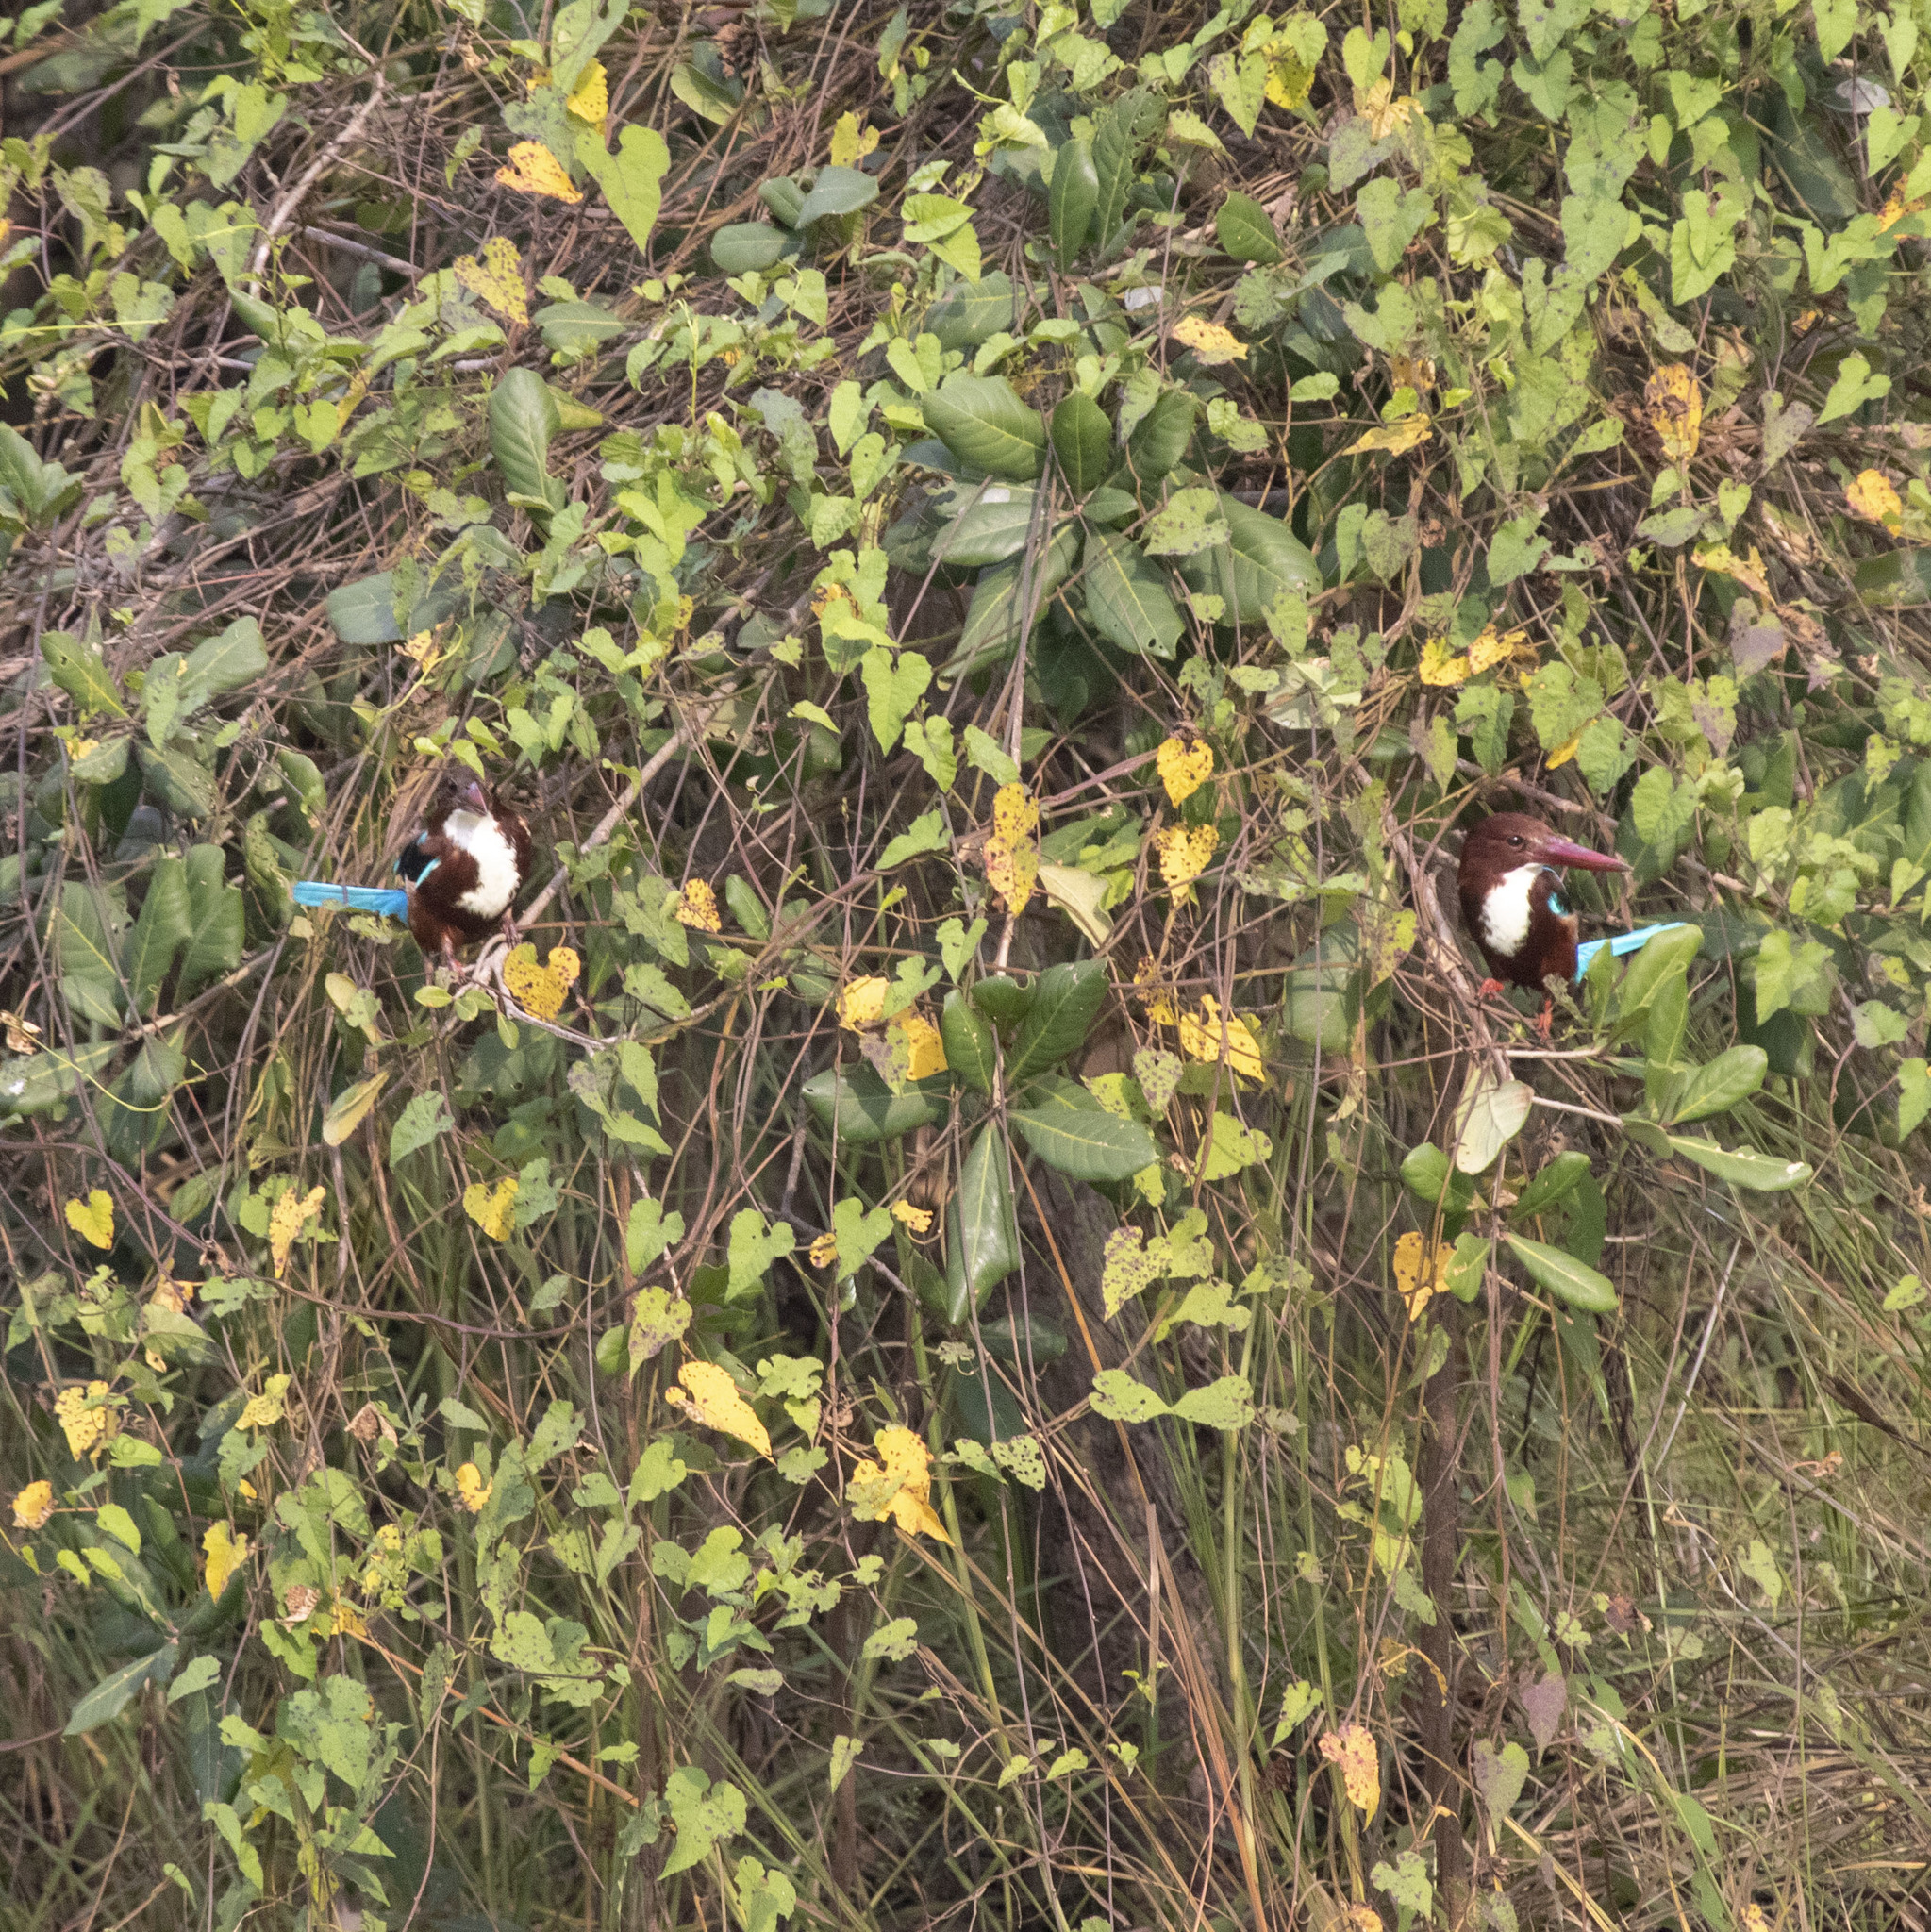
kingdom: Animalia
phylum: Chordata
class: Aves
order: Coraciiformes
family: Alcedinidae
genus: Halcyon
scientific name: Halcyon smyrnensis
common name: White-throated kingfisher
